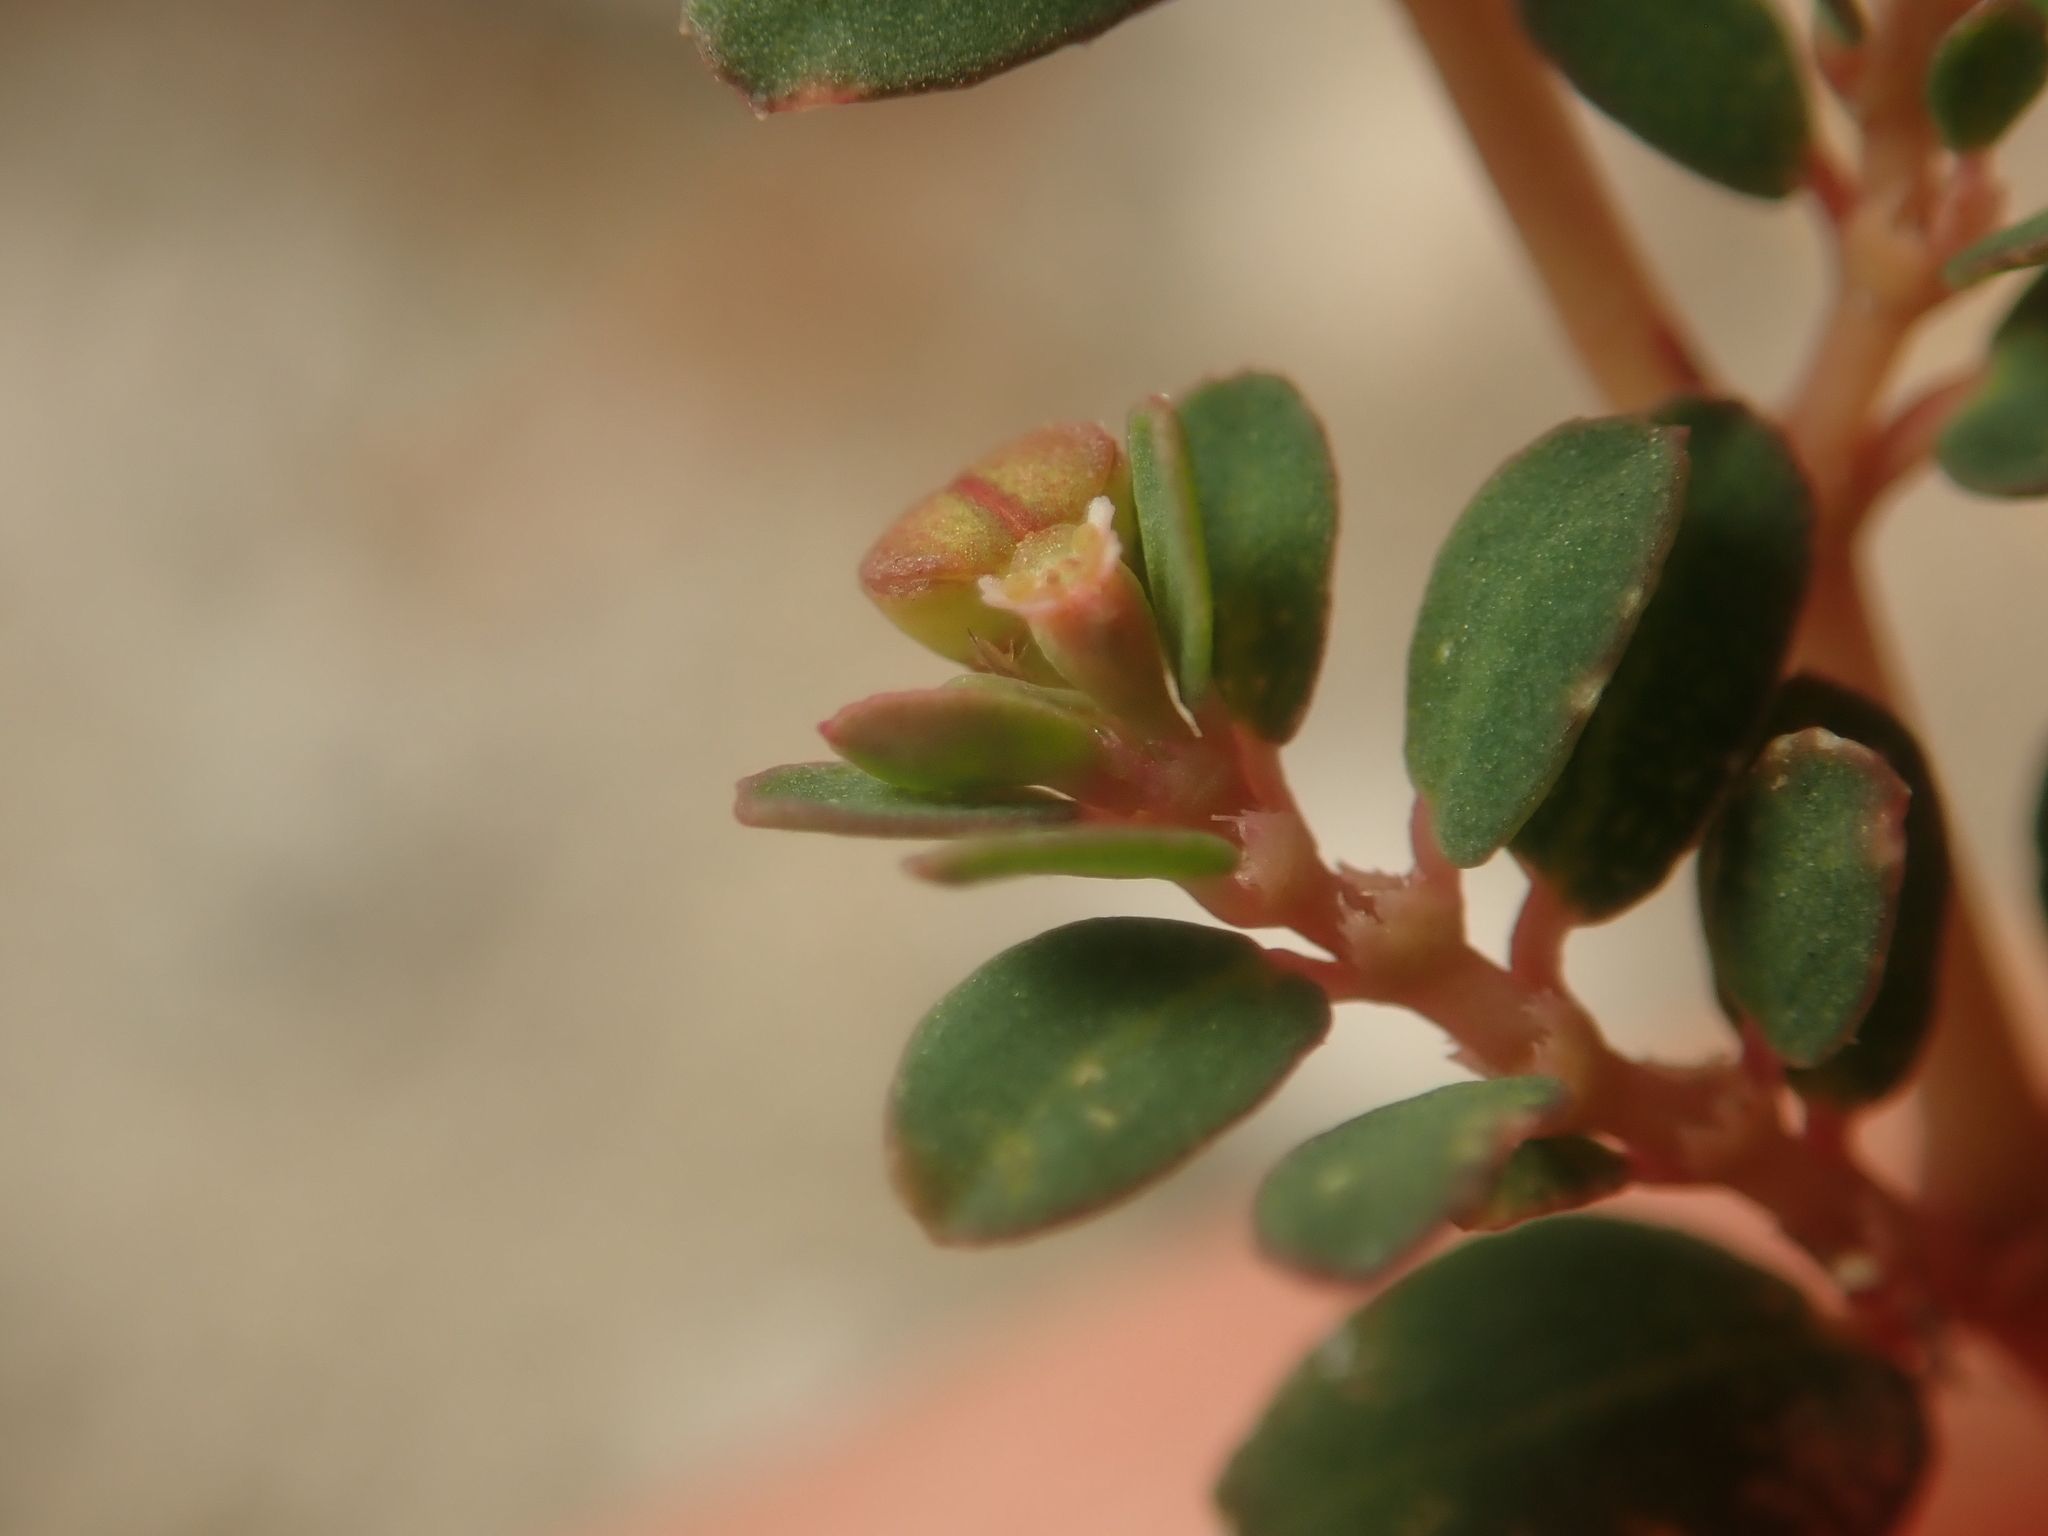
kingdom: Plantae
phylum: Tracheophyta
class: Magnoliopsida
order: Malpighiales
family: Euphorbiaceae
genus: Euphorbia
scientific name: Euphorbia blodgettii
